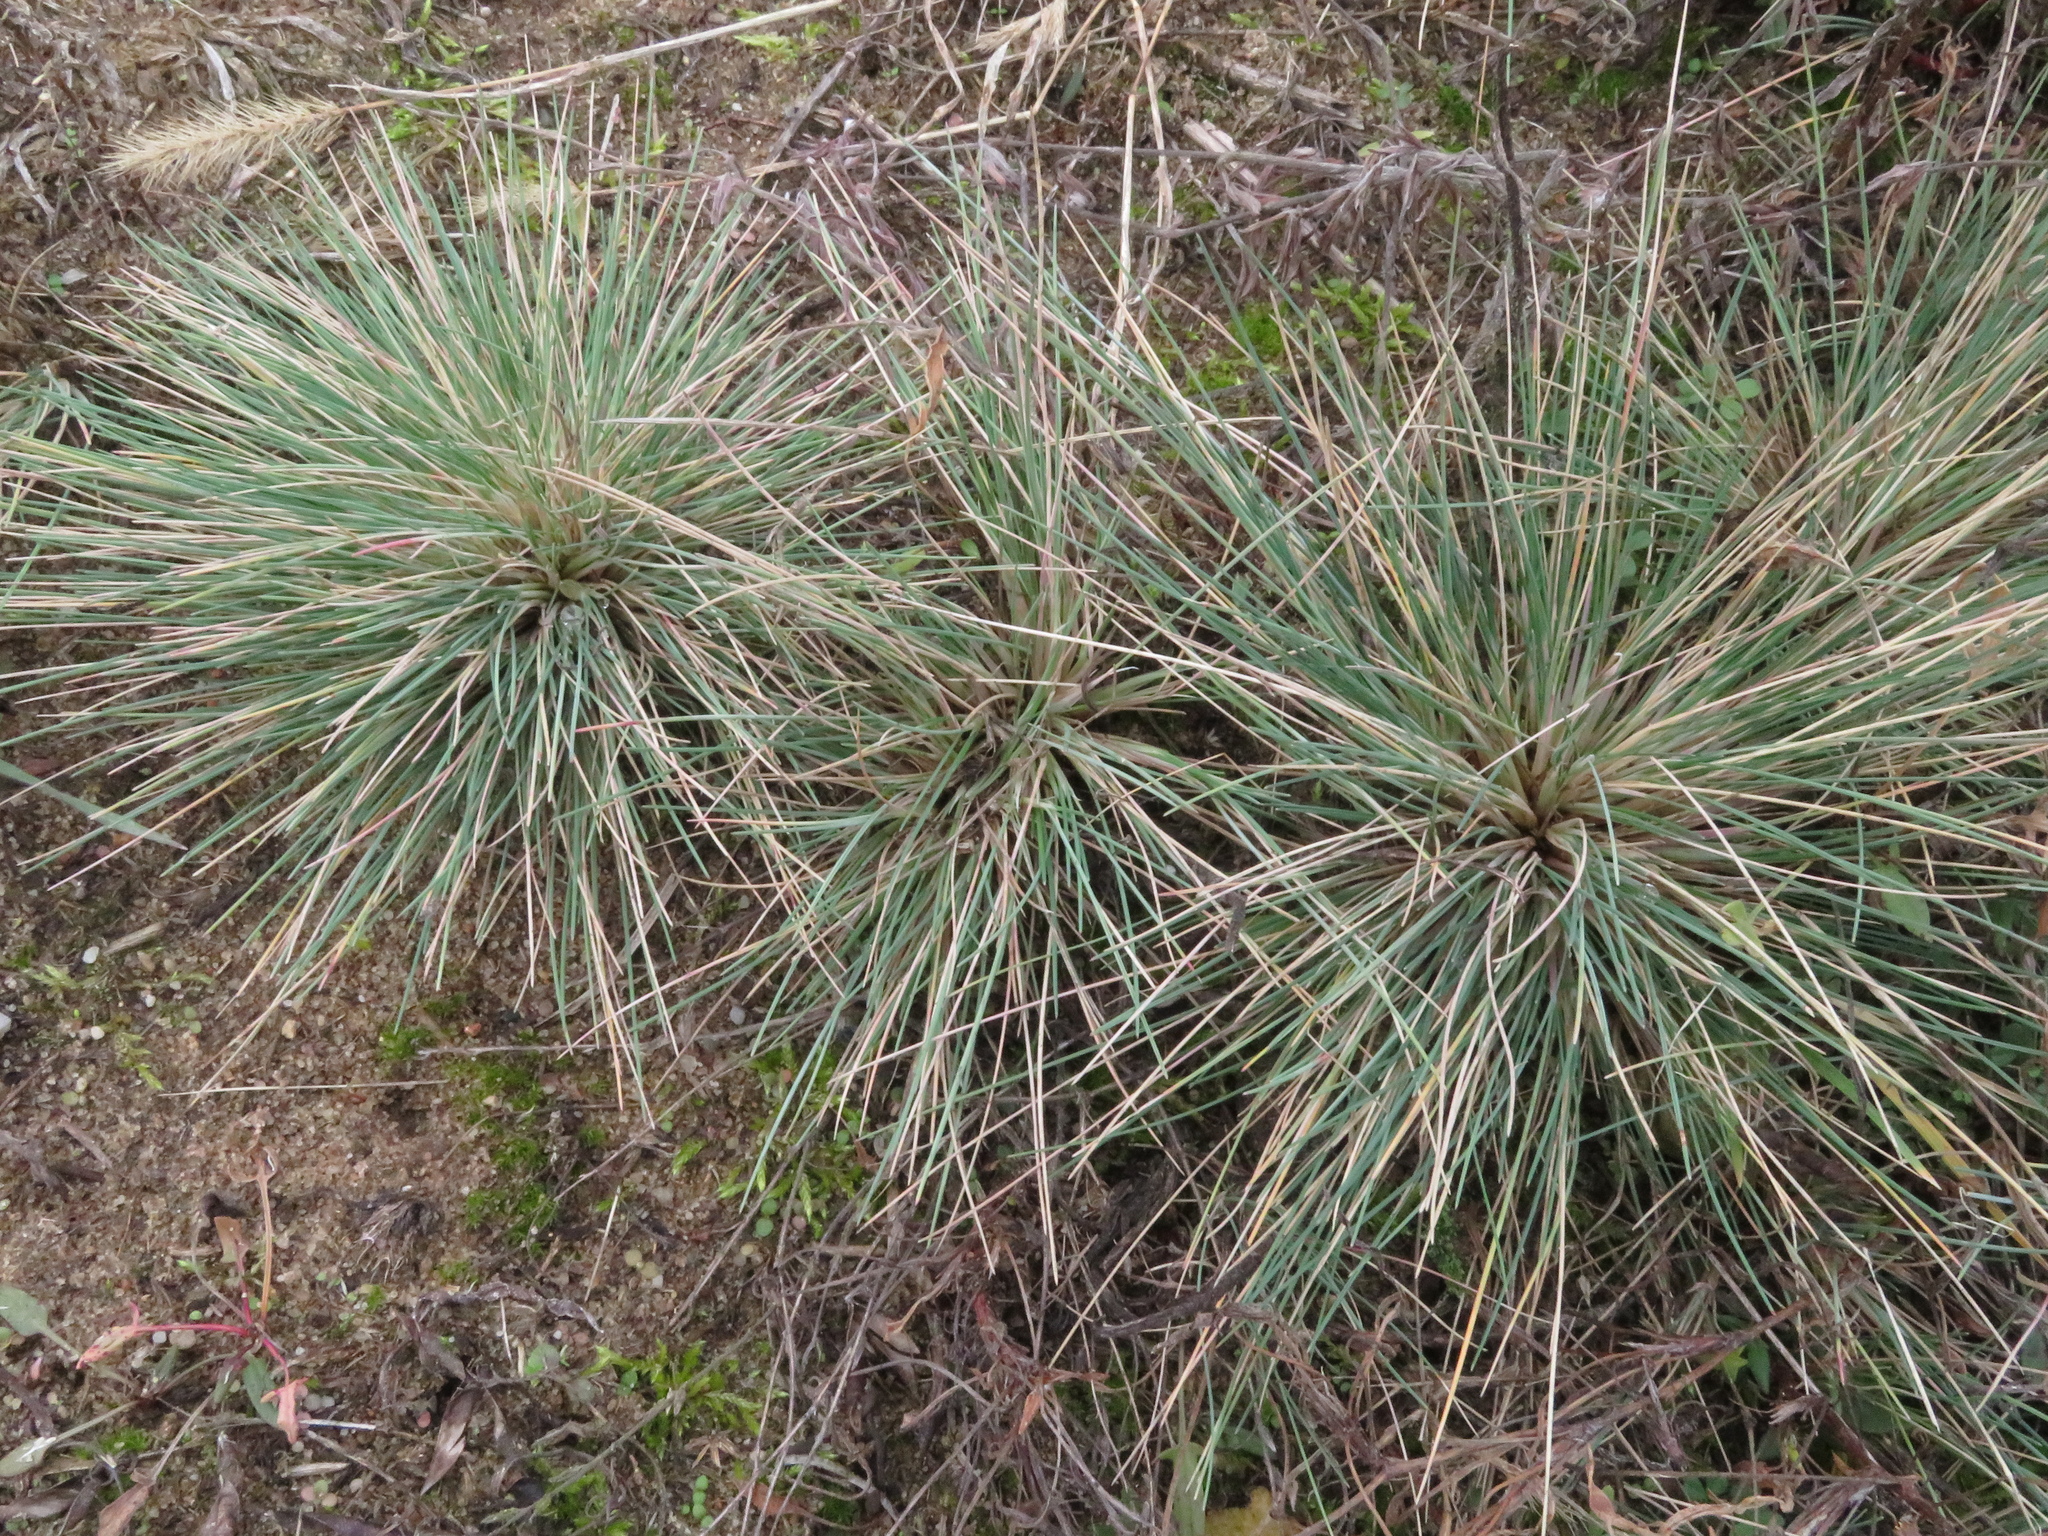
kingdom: Plantae
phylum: Tracheophyta
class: Liliopsida
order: Poales
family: Poaceae
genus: Corynephorus
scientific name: Corynephorus canescens
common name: Grey hair-grass
